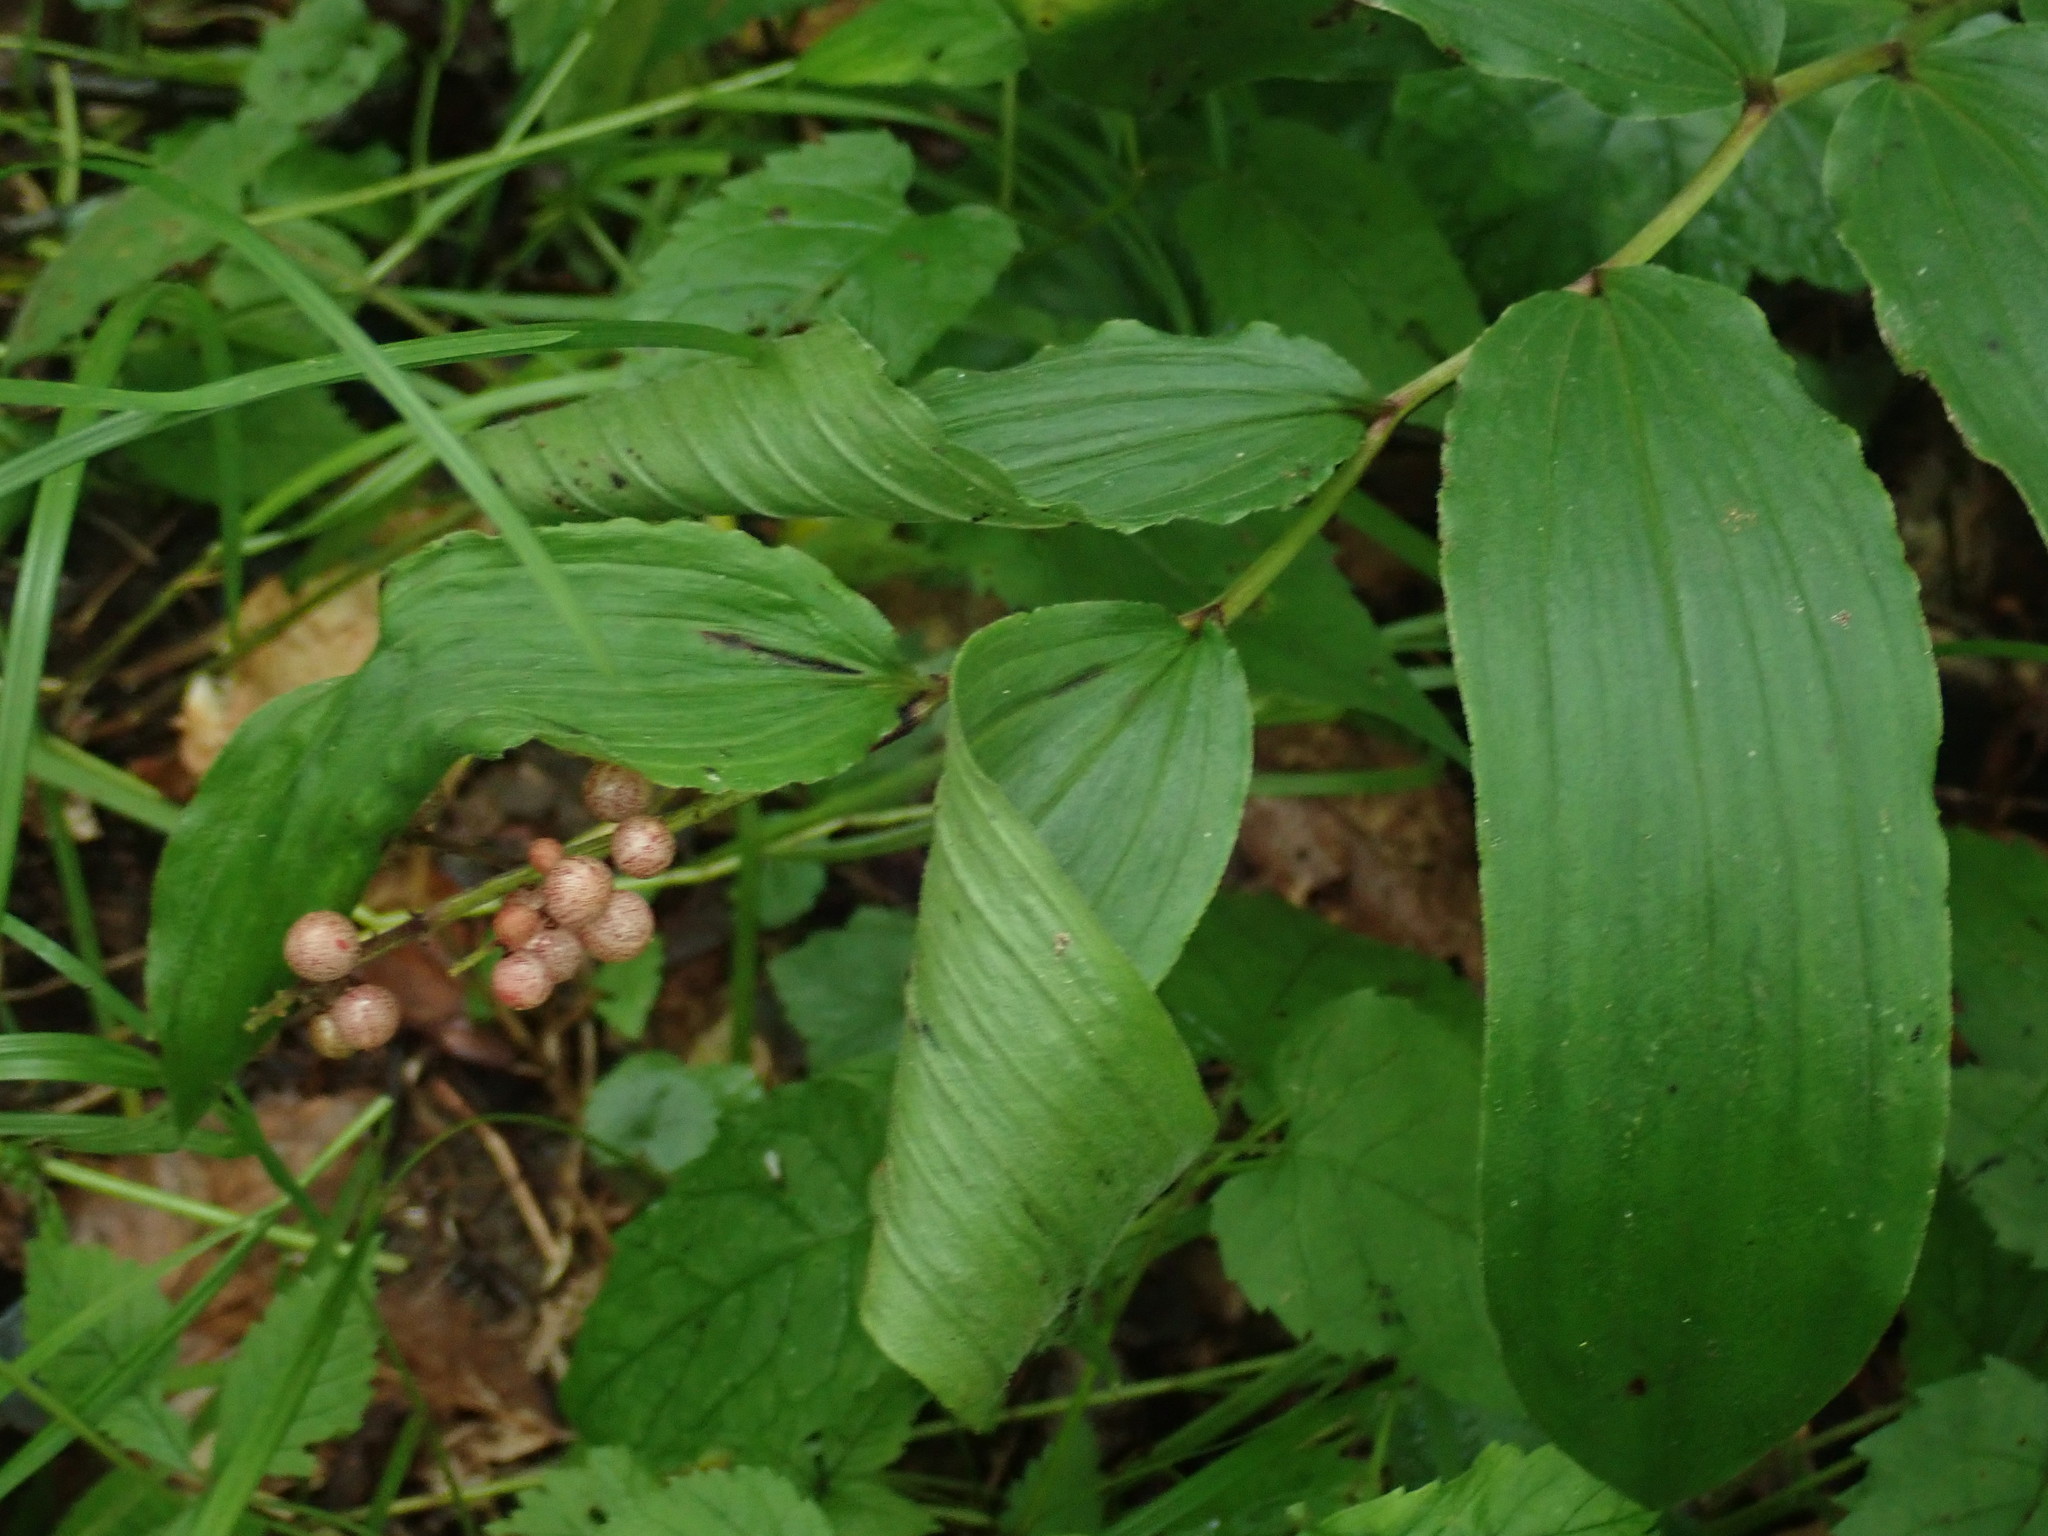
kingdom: Plantae
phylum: Tracheophyta
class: Liliopsida
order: Asparagales
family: Asparagaceae
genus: Maianthemum
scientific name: Maianthemum racemosum
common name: False spikenard
